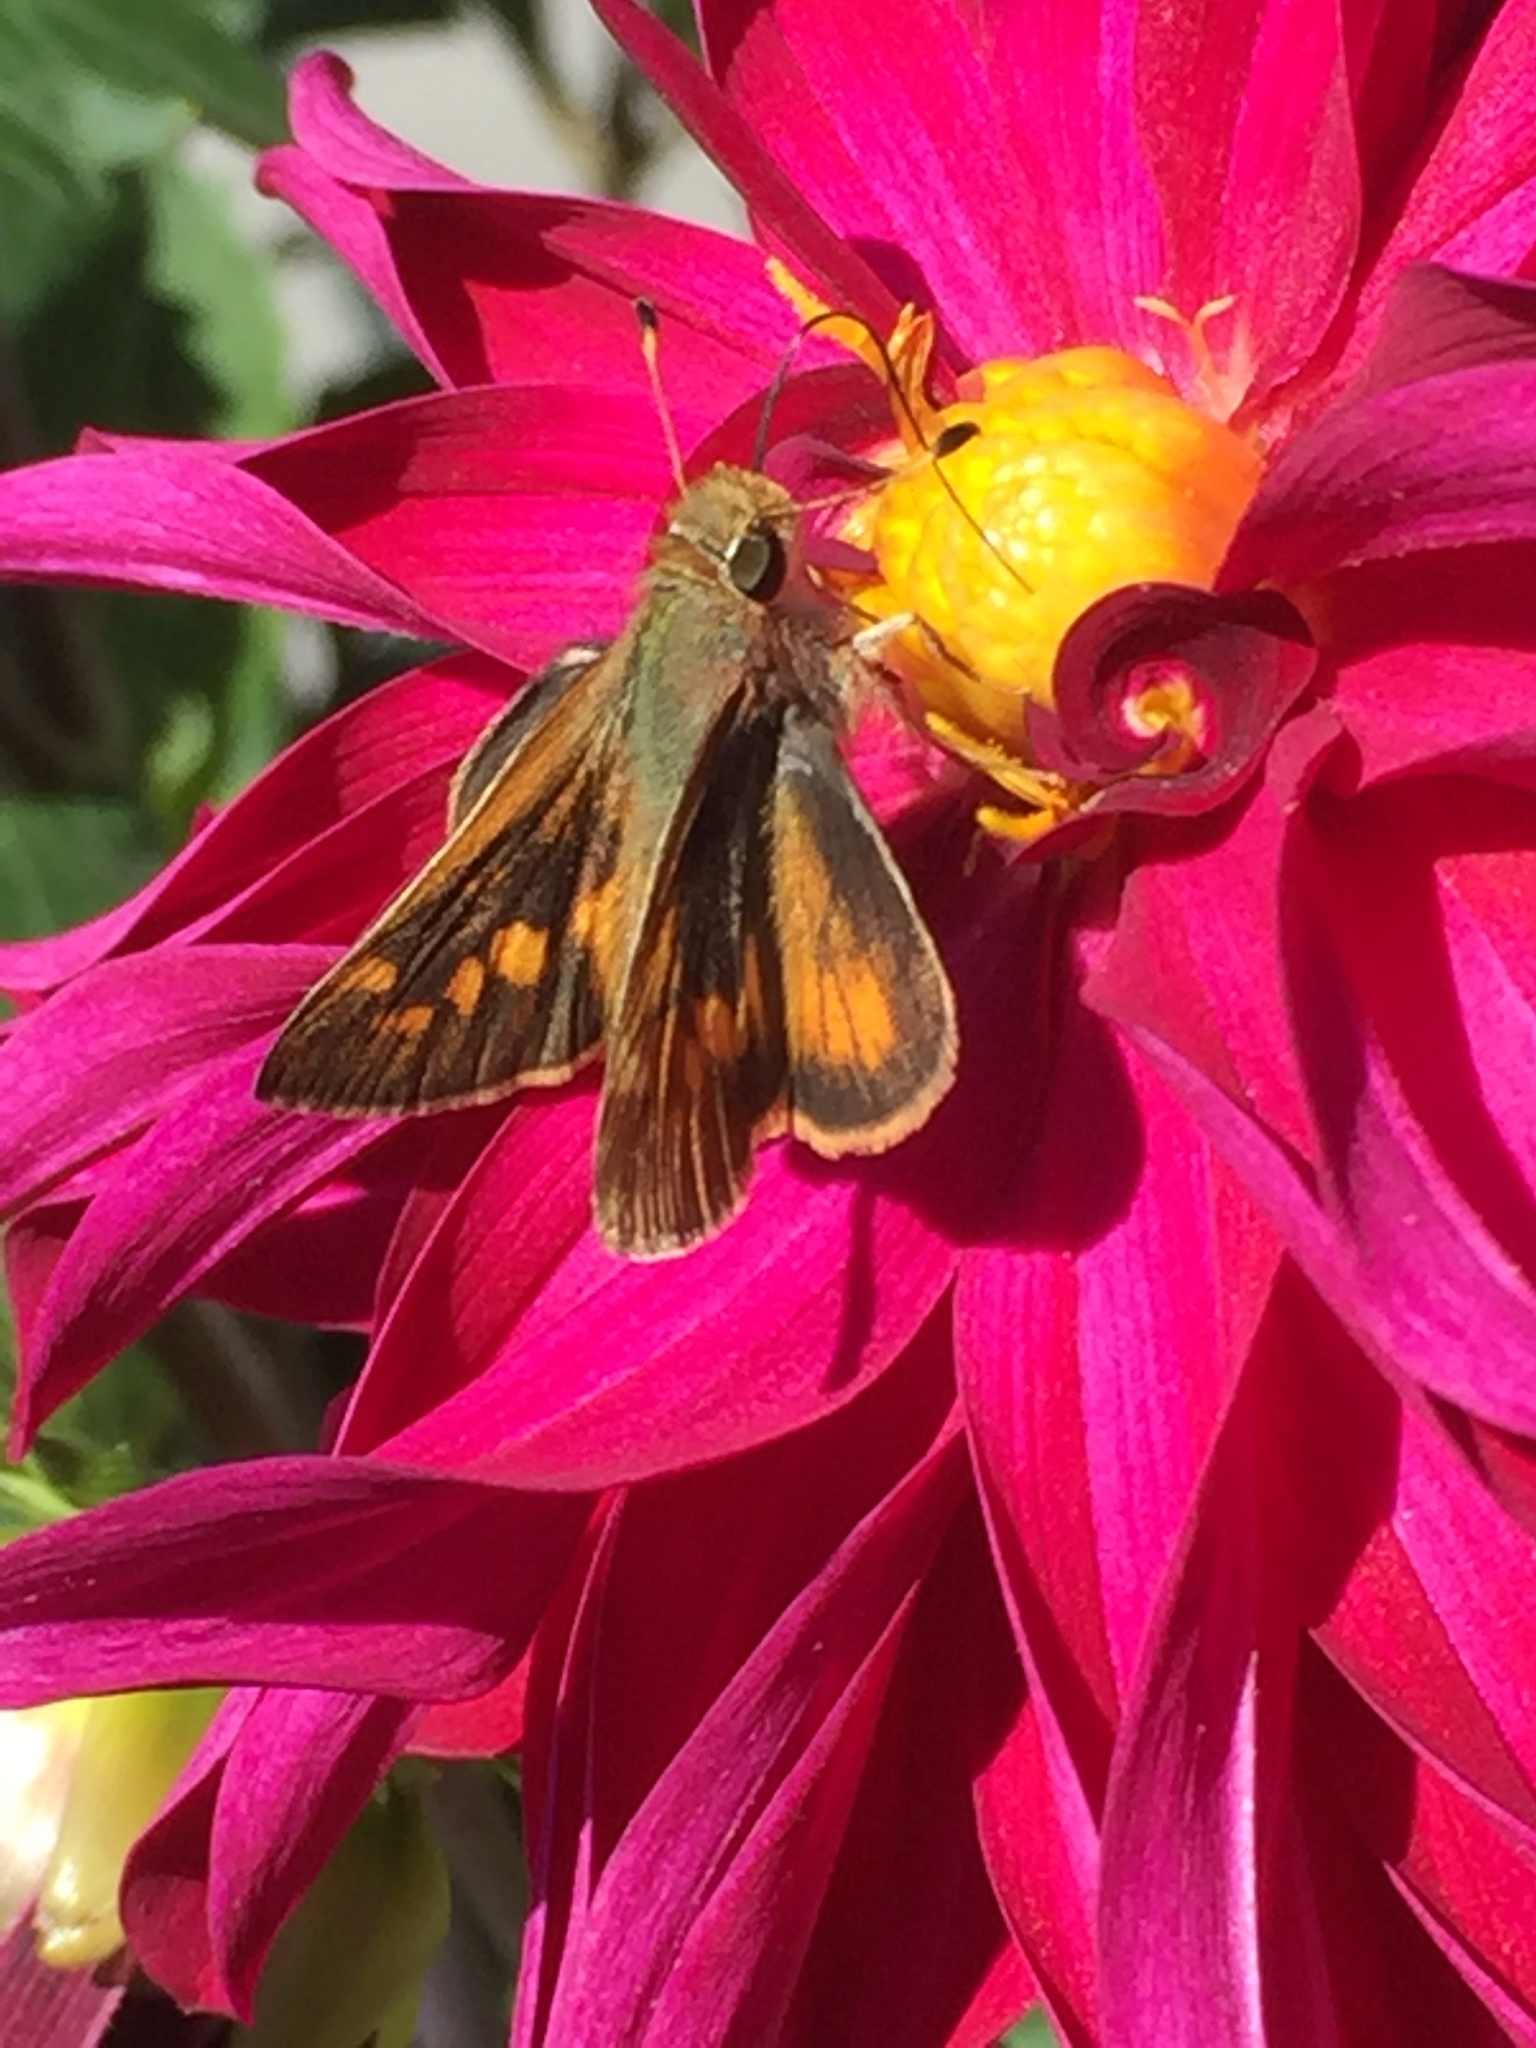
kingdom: Animalia
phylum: Arthropoda
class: Insecta
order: Lepidoptera
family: Hesperiidae
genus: Lon
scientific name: Lon melane
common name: Umber skipper
